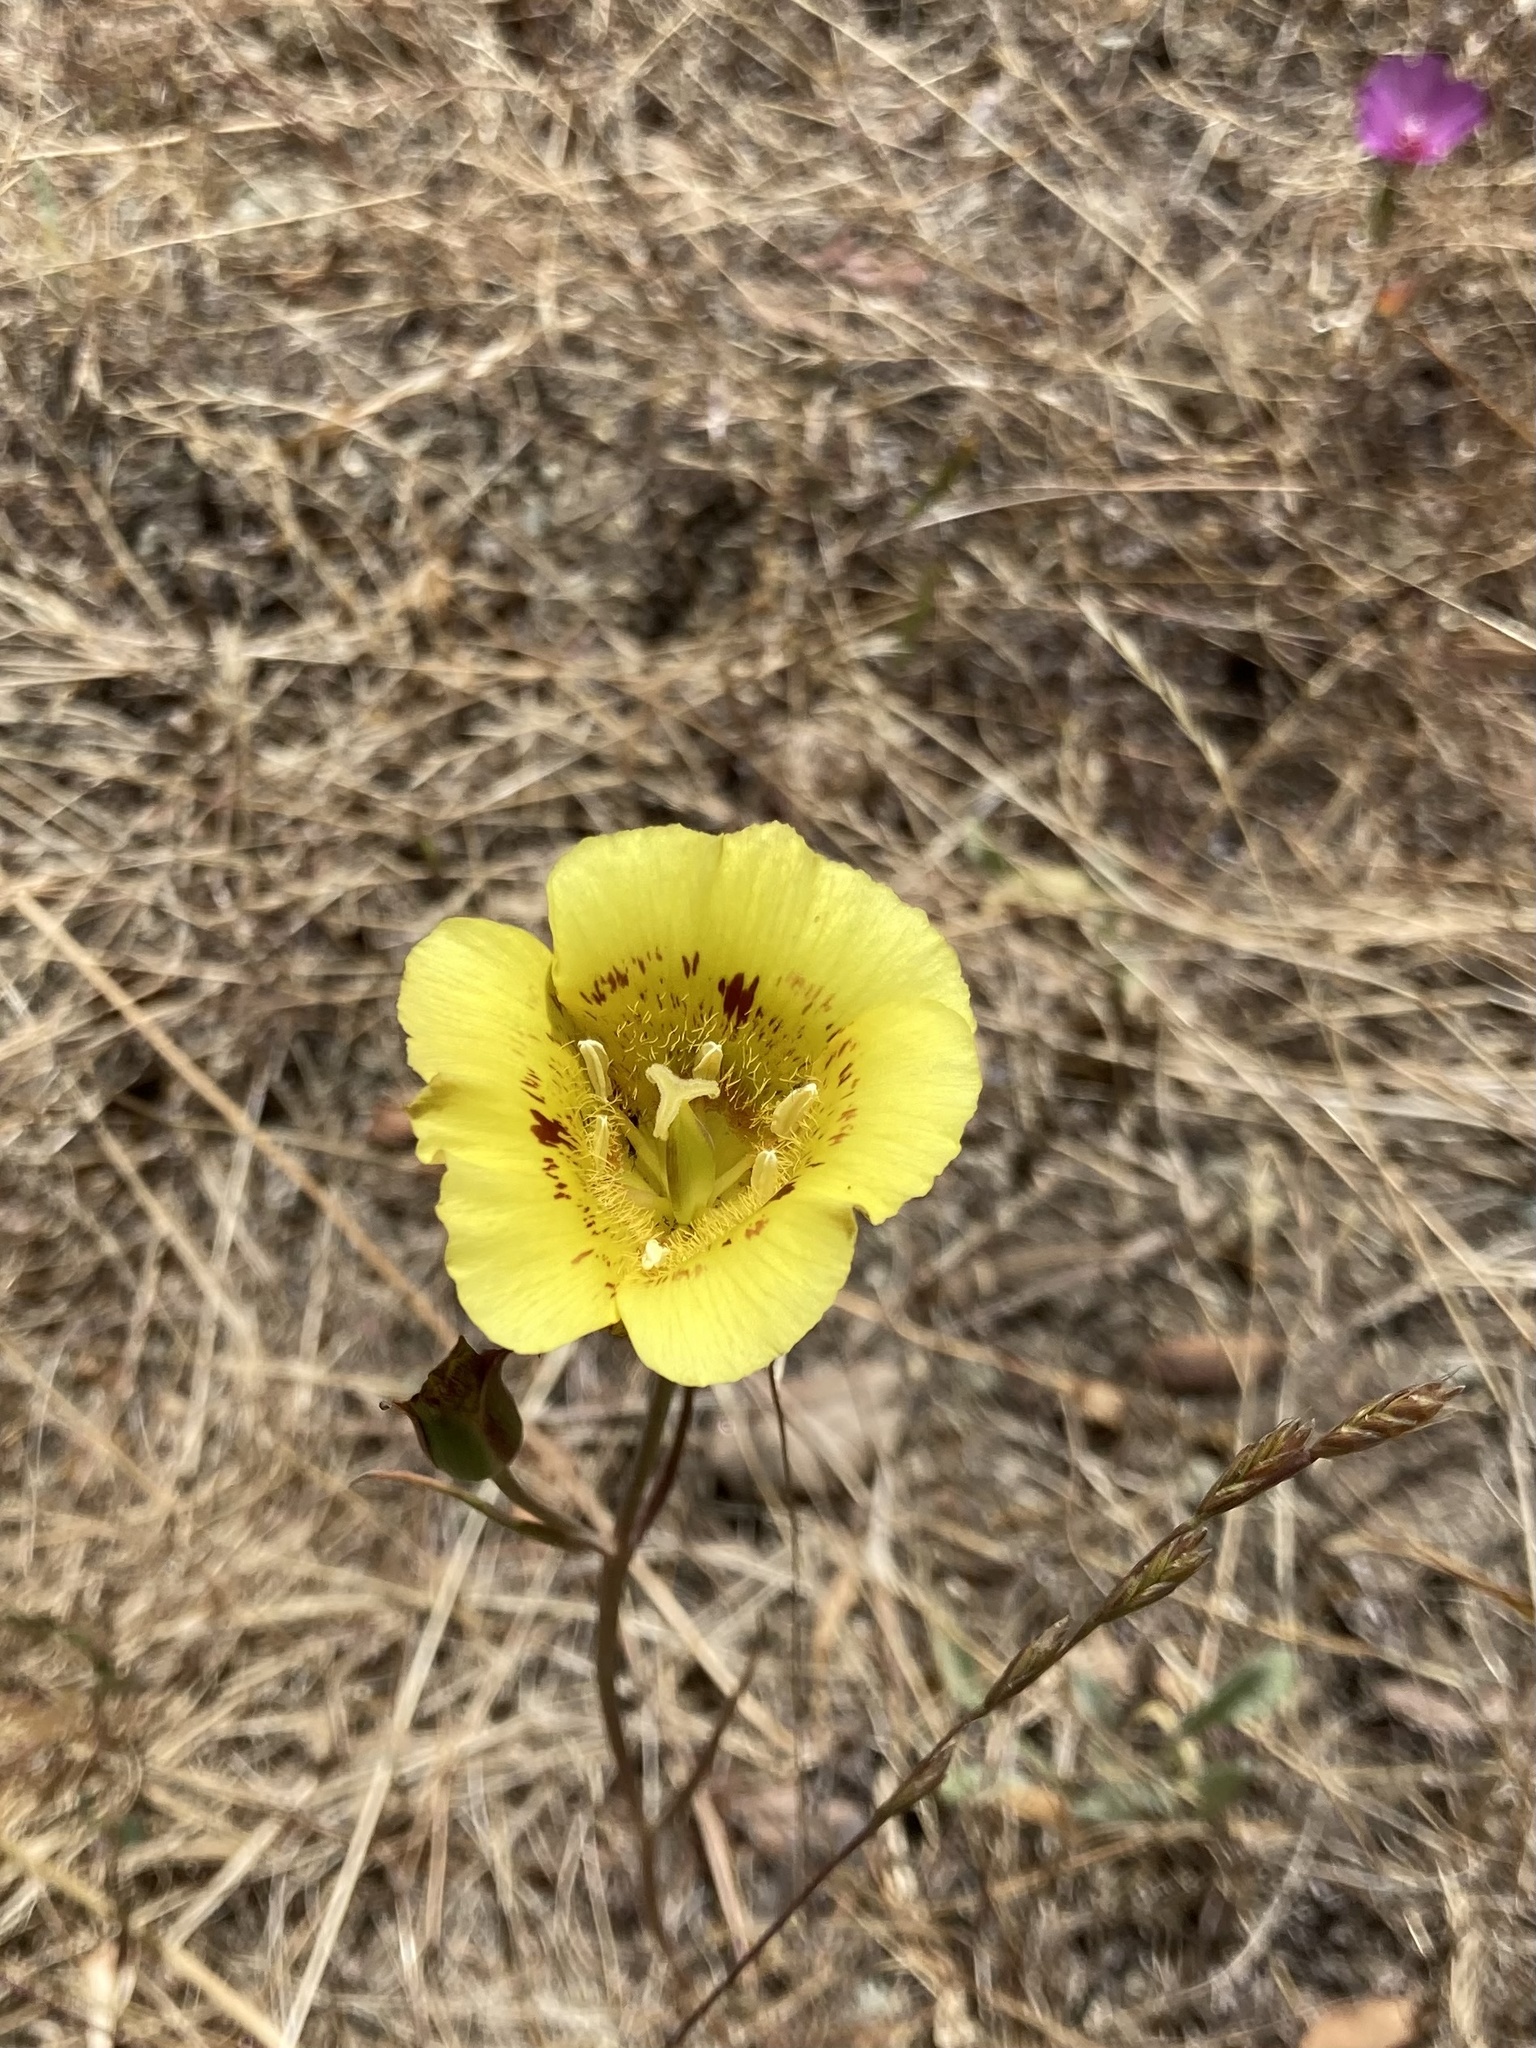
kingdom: Plantae
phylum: Tracheophyta
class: Liliopsida
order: Liliales
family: Liliaceae
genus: Calochortus
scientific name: Calochortus luteus
